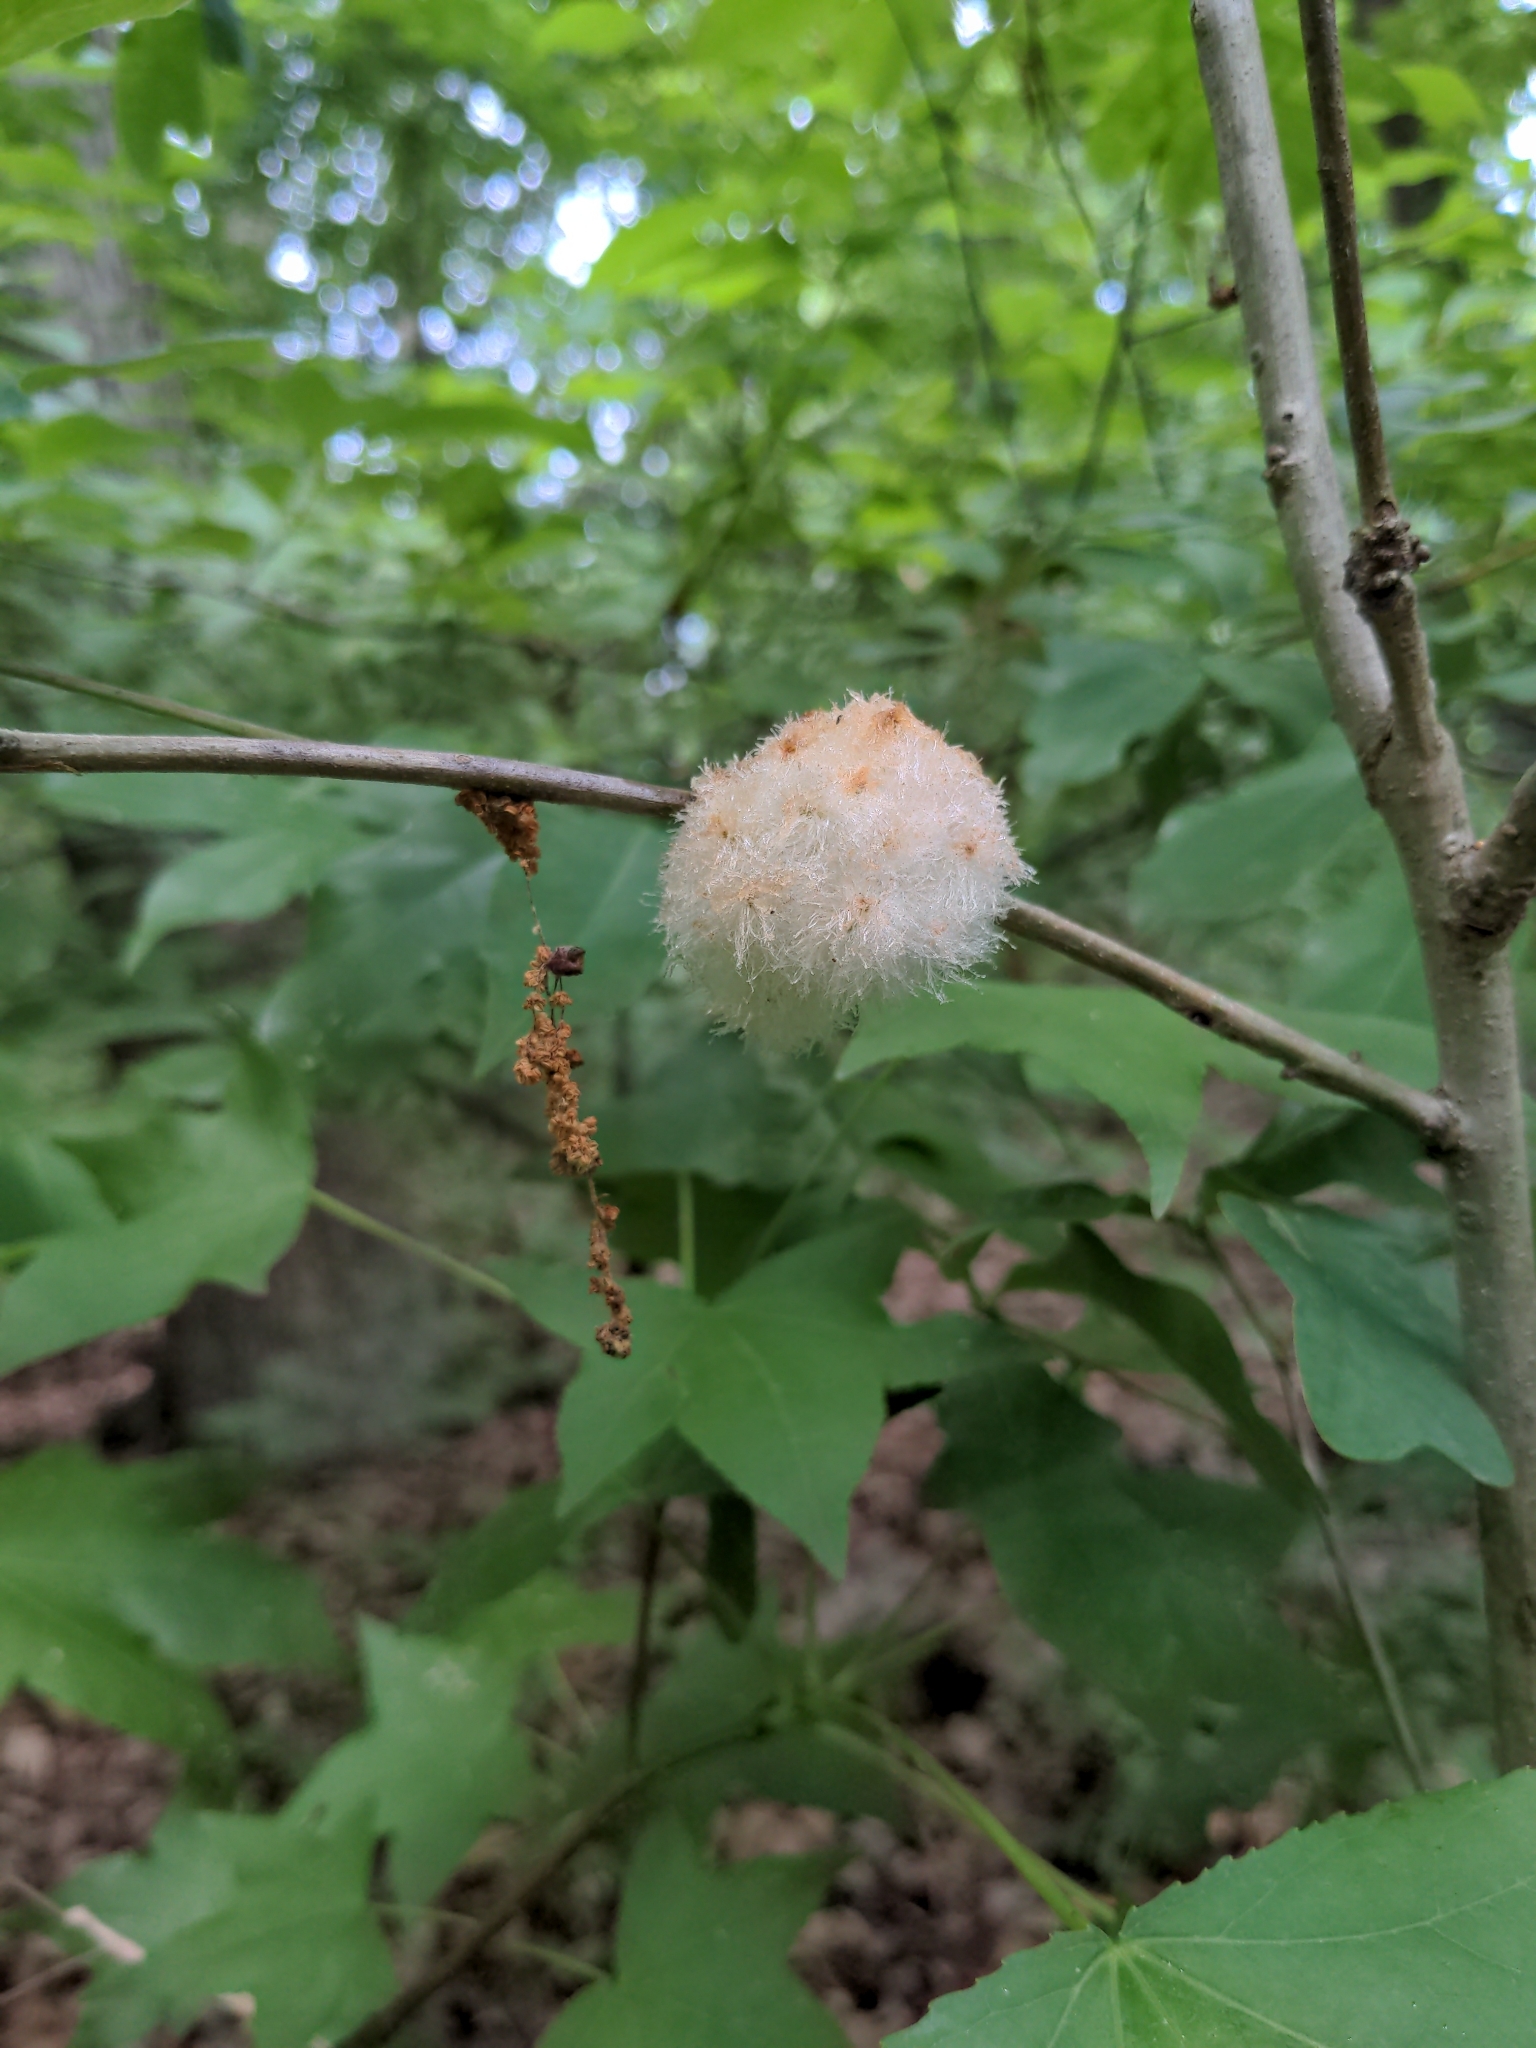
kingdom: Animalia
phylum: Arthropoda
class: Insecta
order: Hymenoptera
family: Cynipidae
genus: Callirhytis
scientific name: Callirhytis
